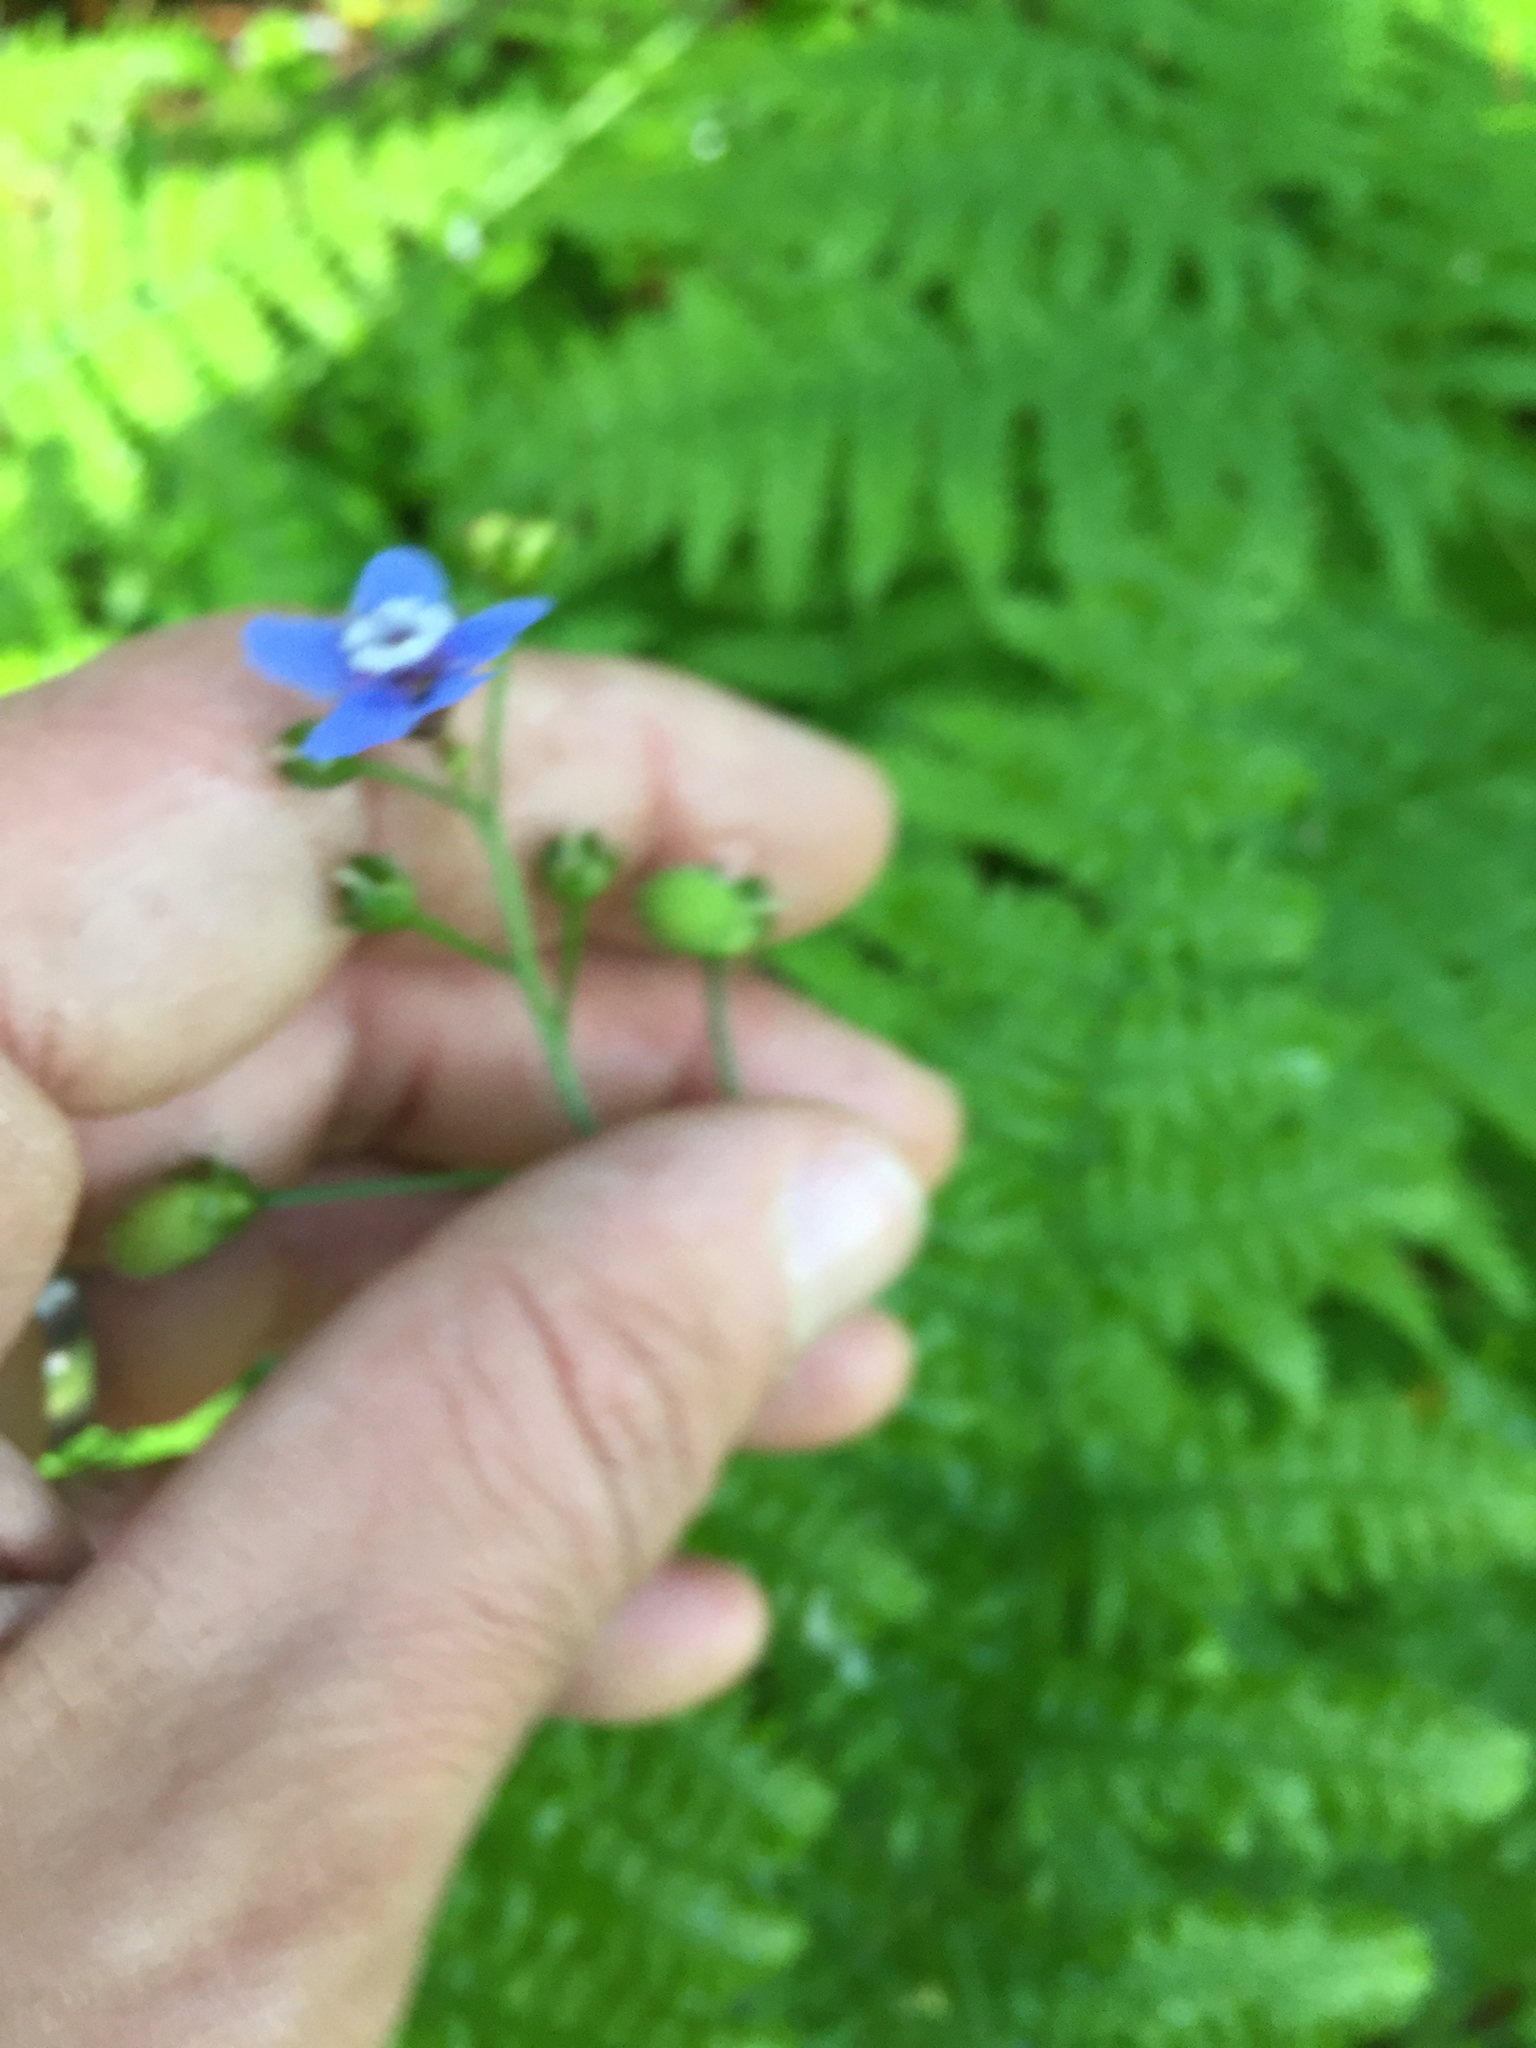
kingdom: Plantae
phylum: Tracheophyta
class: Magnoliopsida
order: Boraginales
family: Boraginaceae
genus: Adelinia
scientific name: Adelinia grande
